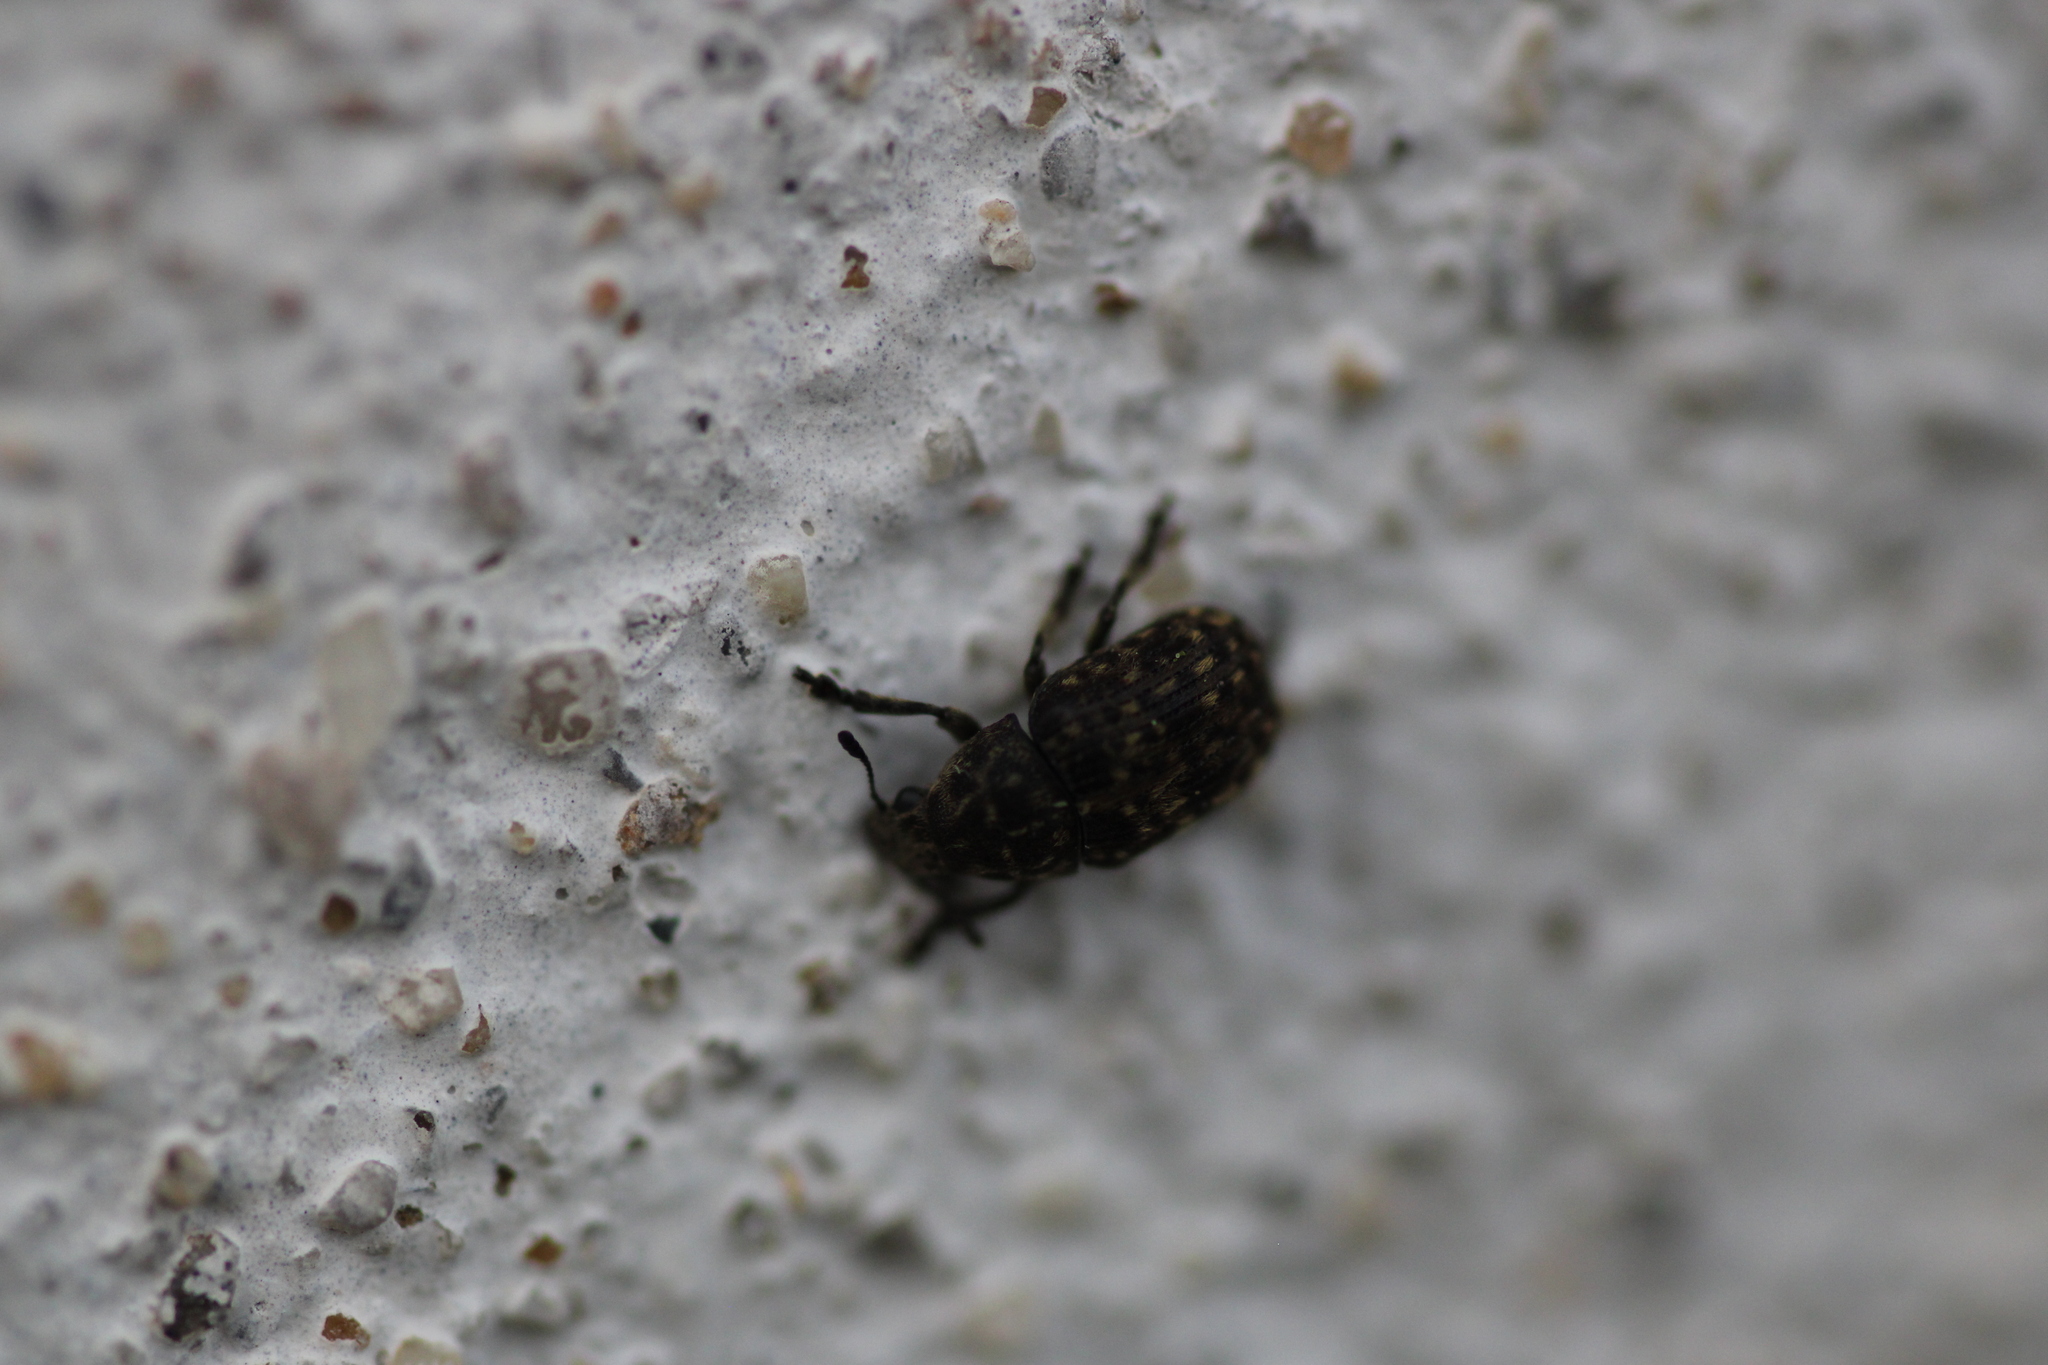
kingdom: Animalia
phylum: Arthropoda
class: Insecta
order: Coleoptera
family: Anthribidae
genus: Anthribus
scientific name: Anthribus nebulosus
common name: Fungus weevil
